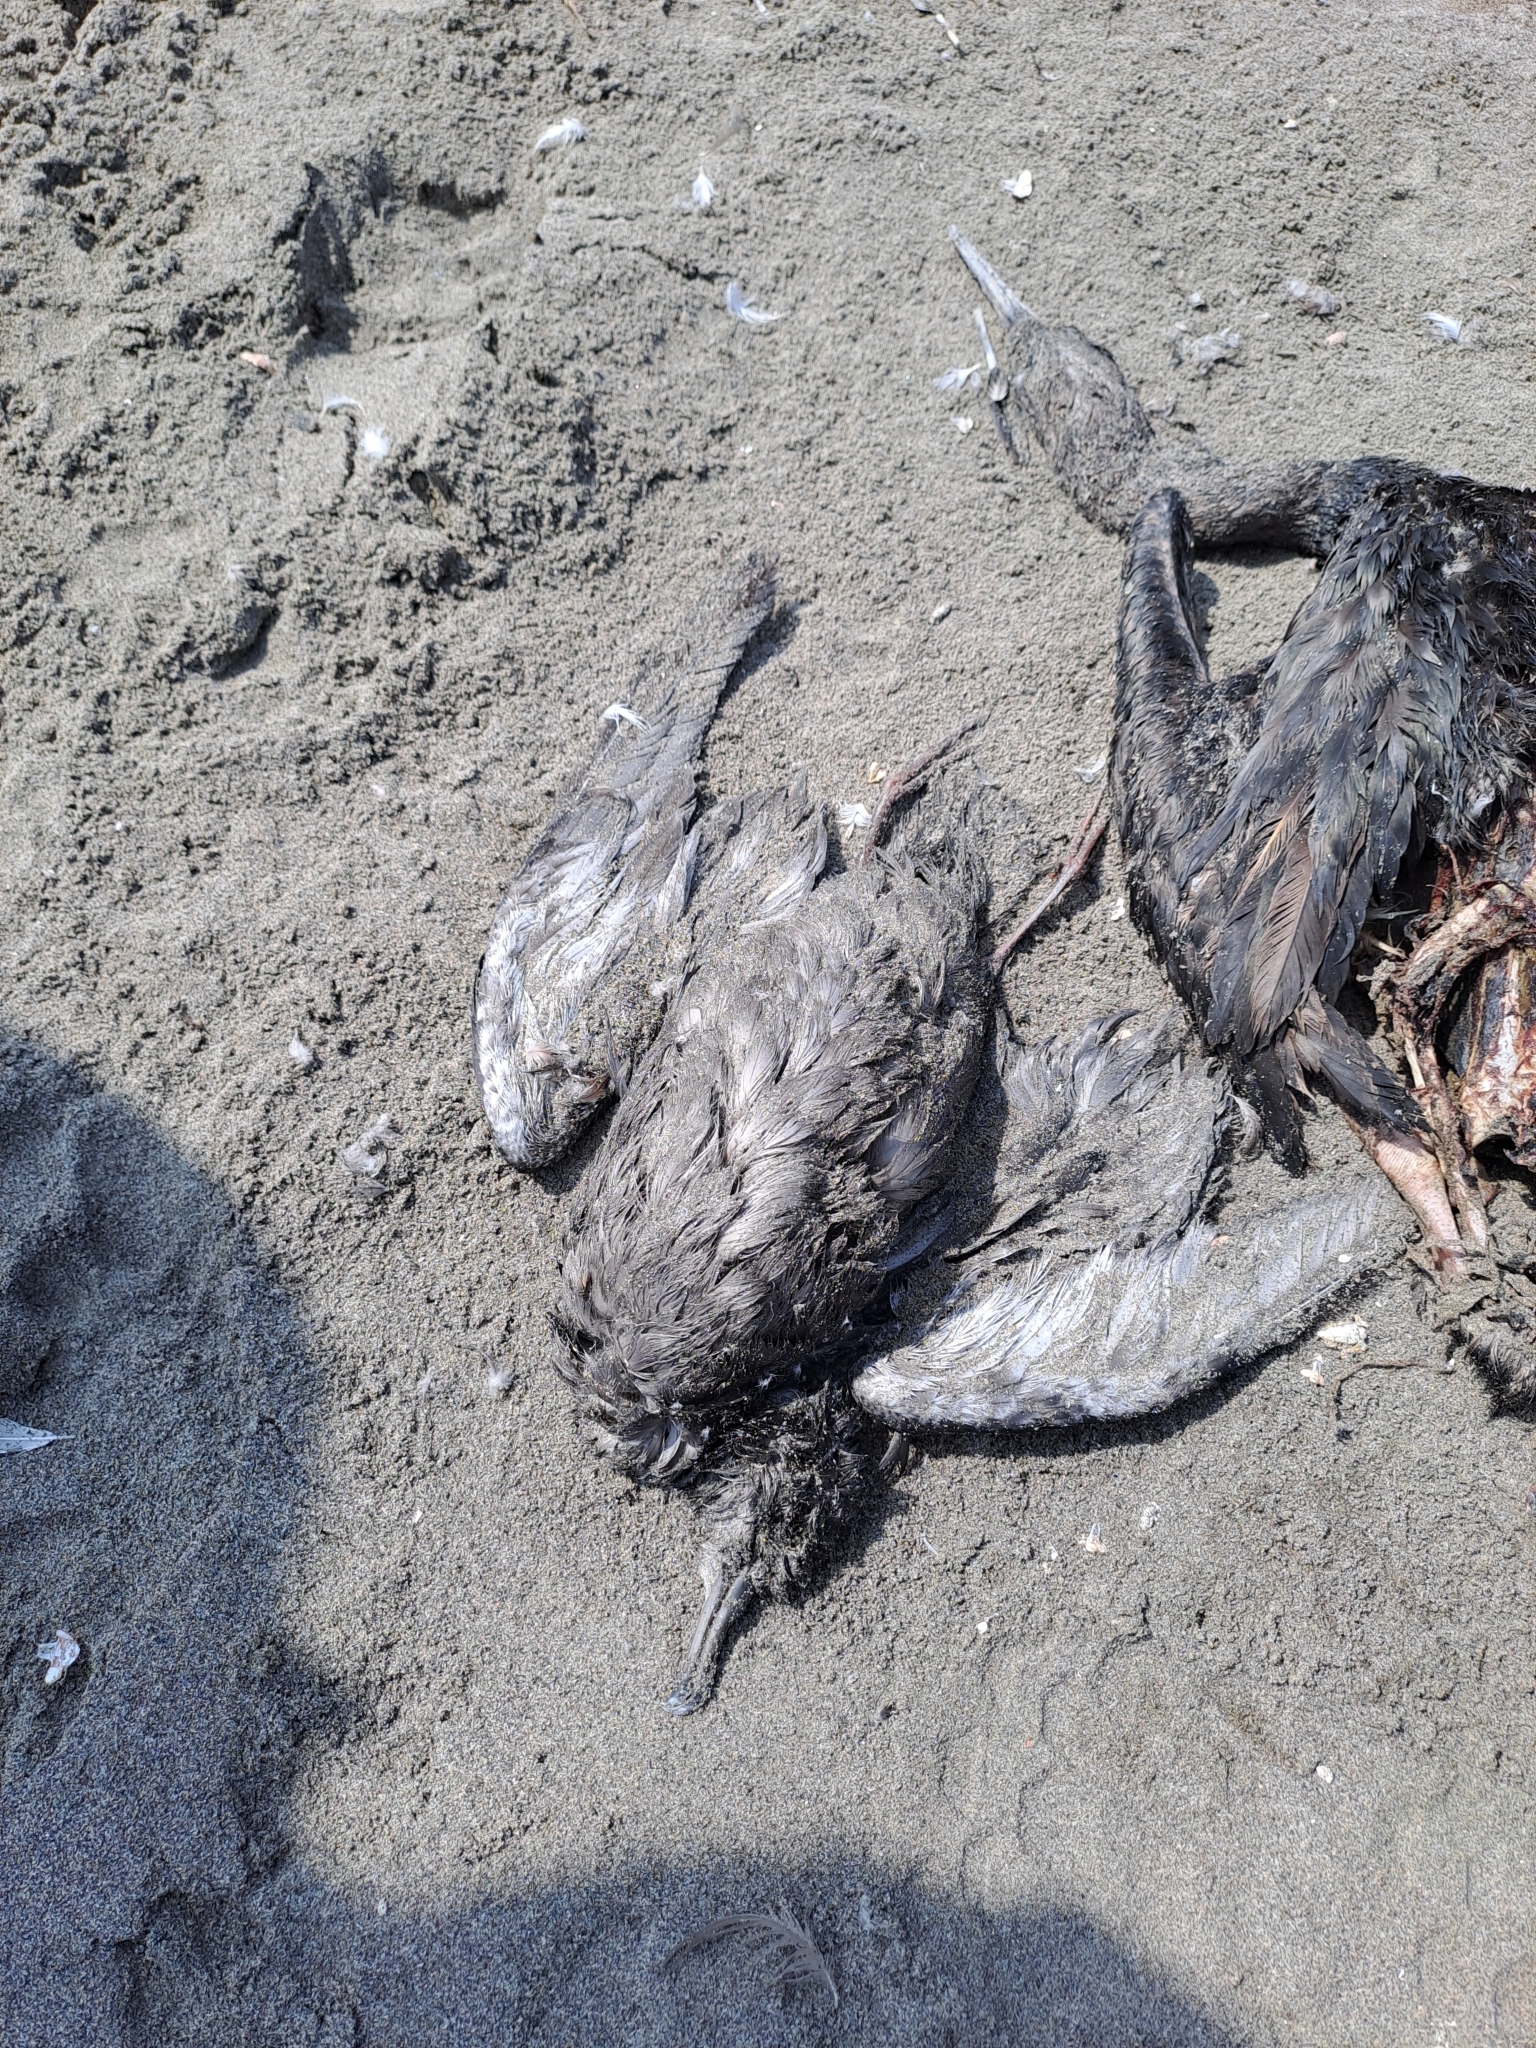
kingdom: Animalia
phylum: Chordata
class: Aves
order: Procellariiformes
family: Procellariidae
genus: Puffinus
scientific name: Puffinus griseus
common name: Sooty shearwater
